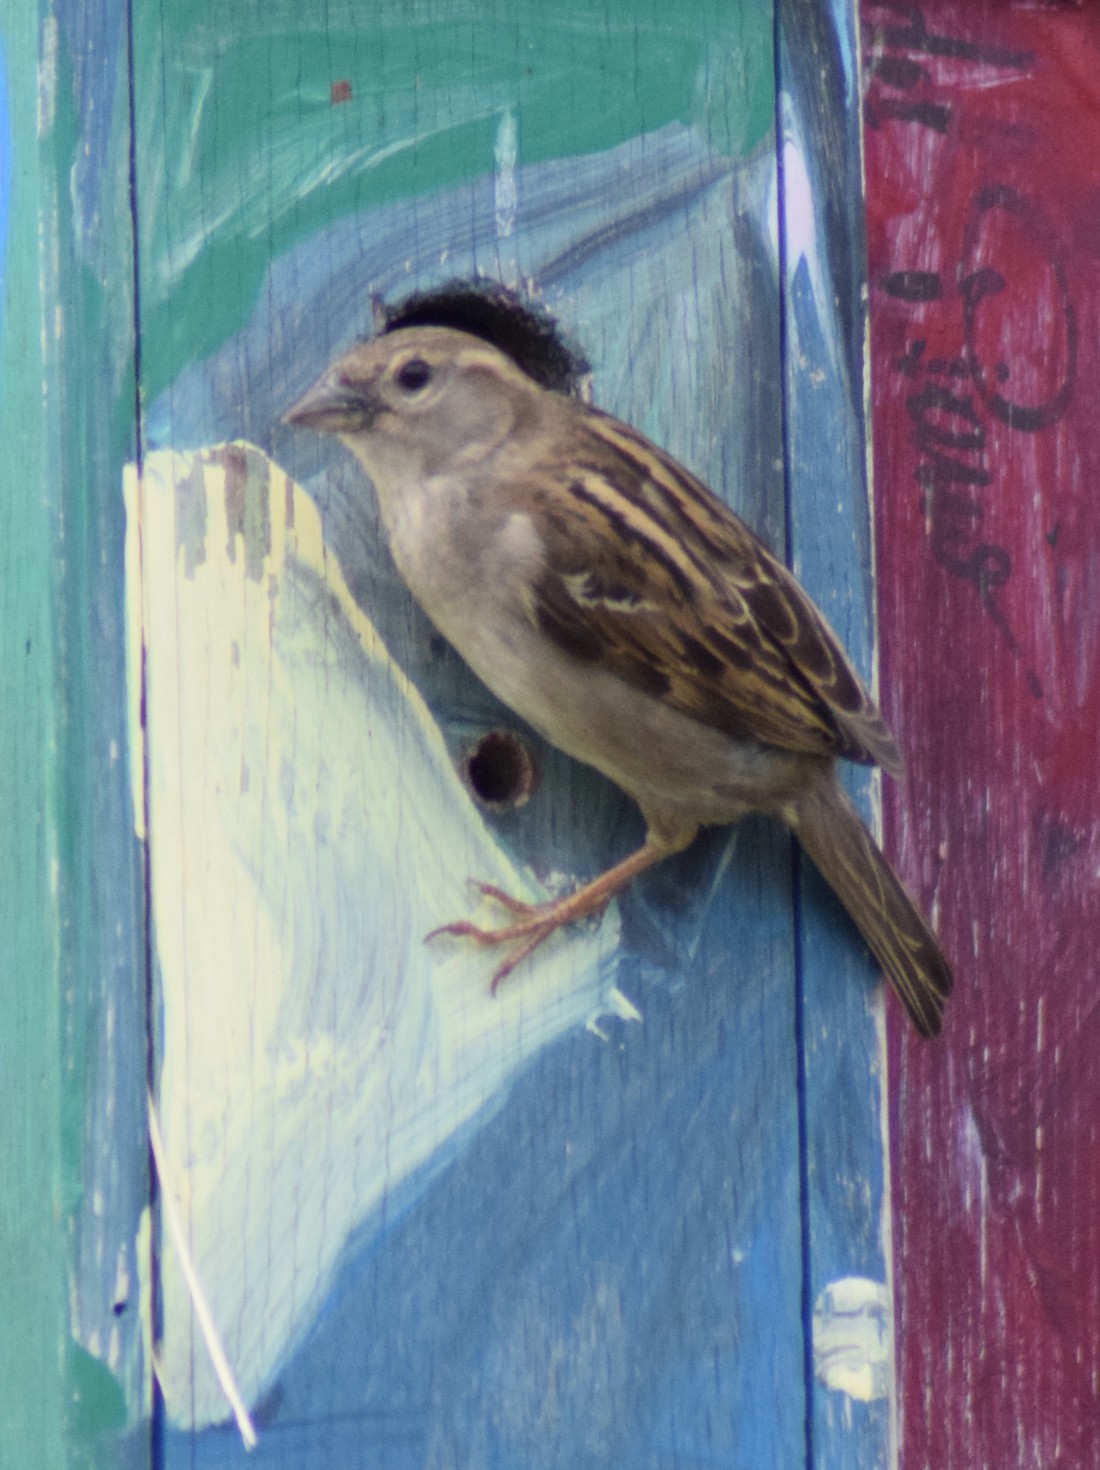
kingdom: Animalia
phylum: Chordata
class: Aves
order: Passeriformes
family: Passeridae
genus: Passer
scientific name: Passer domesticus
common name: House sparrow
